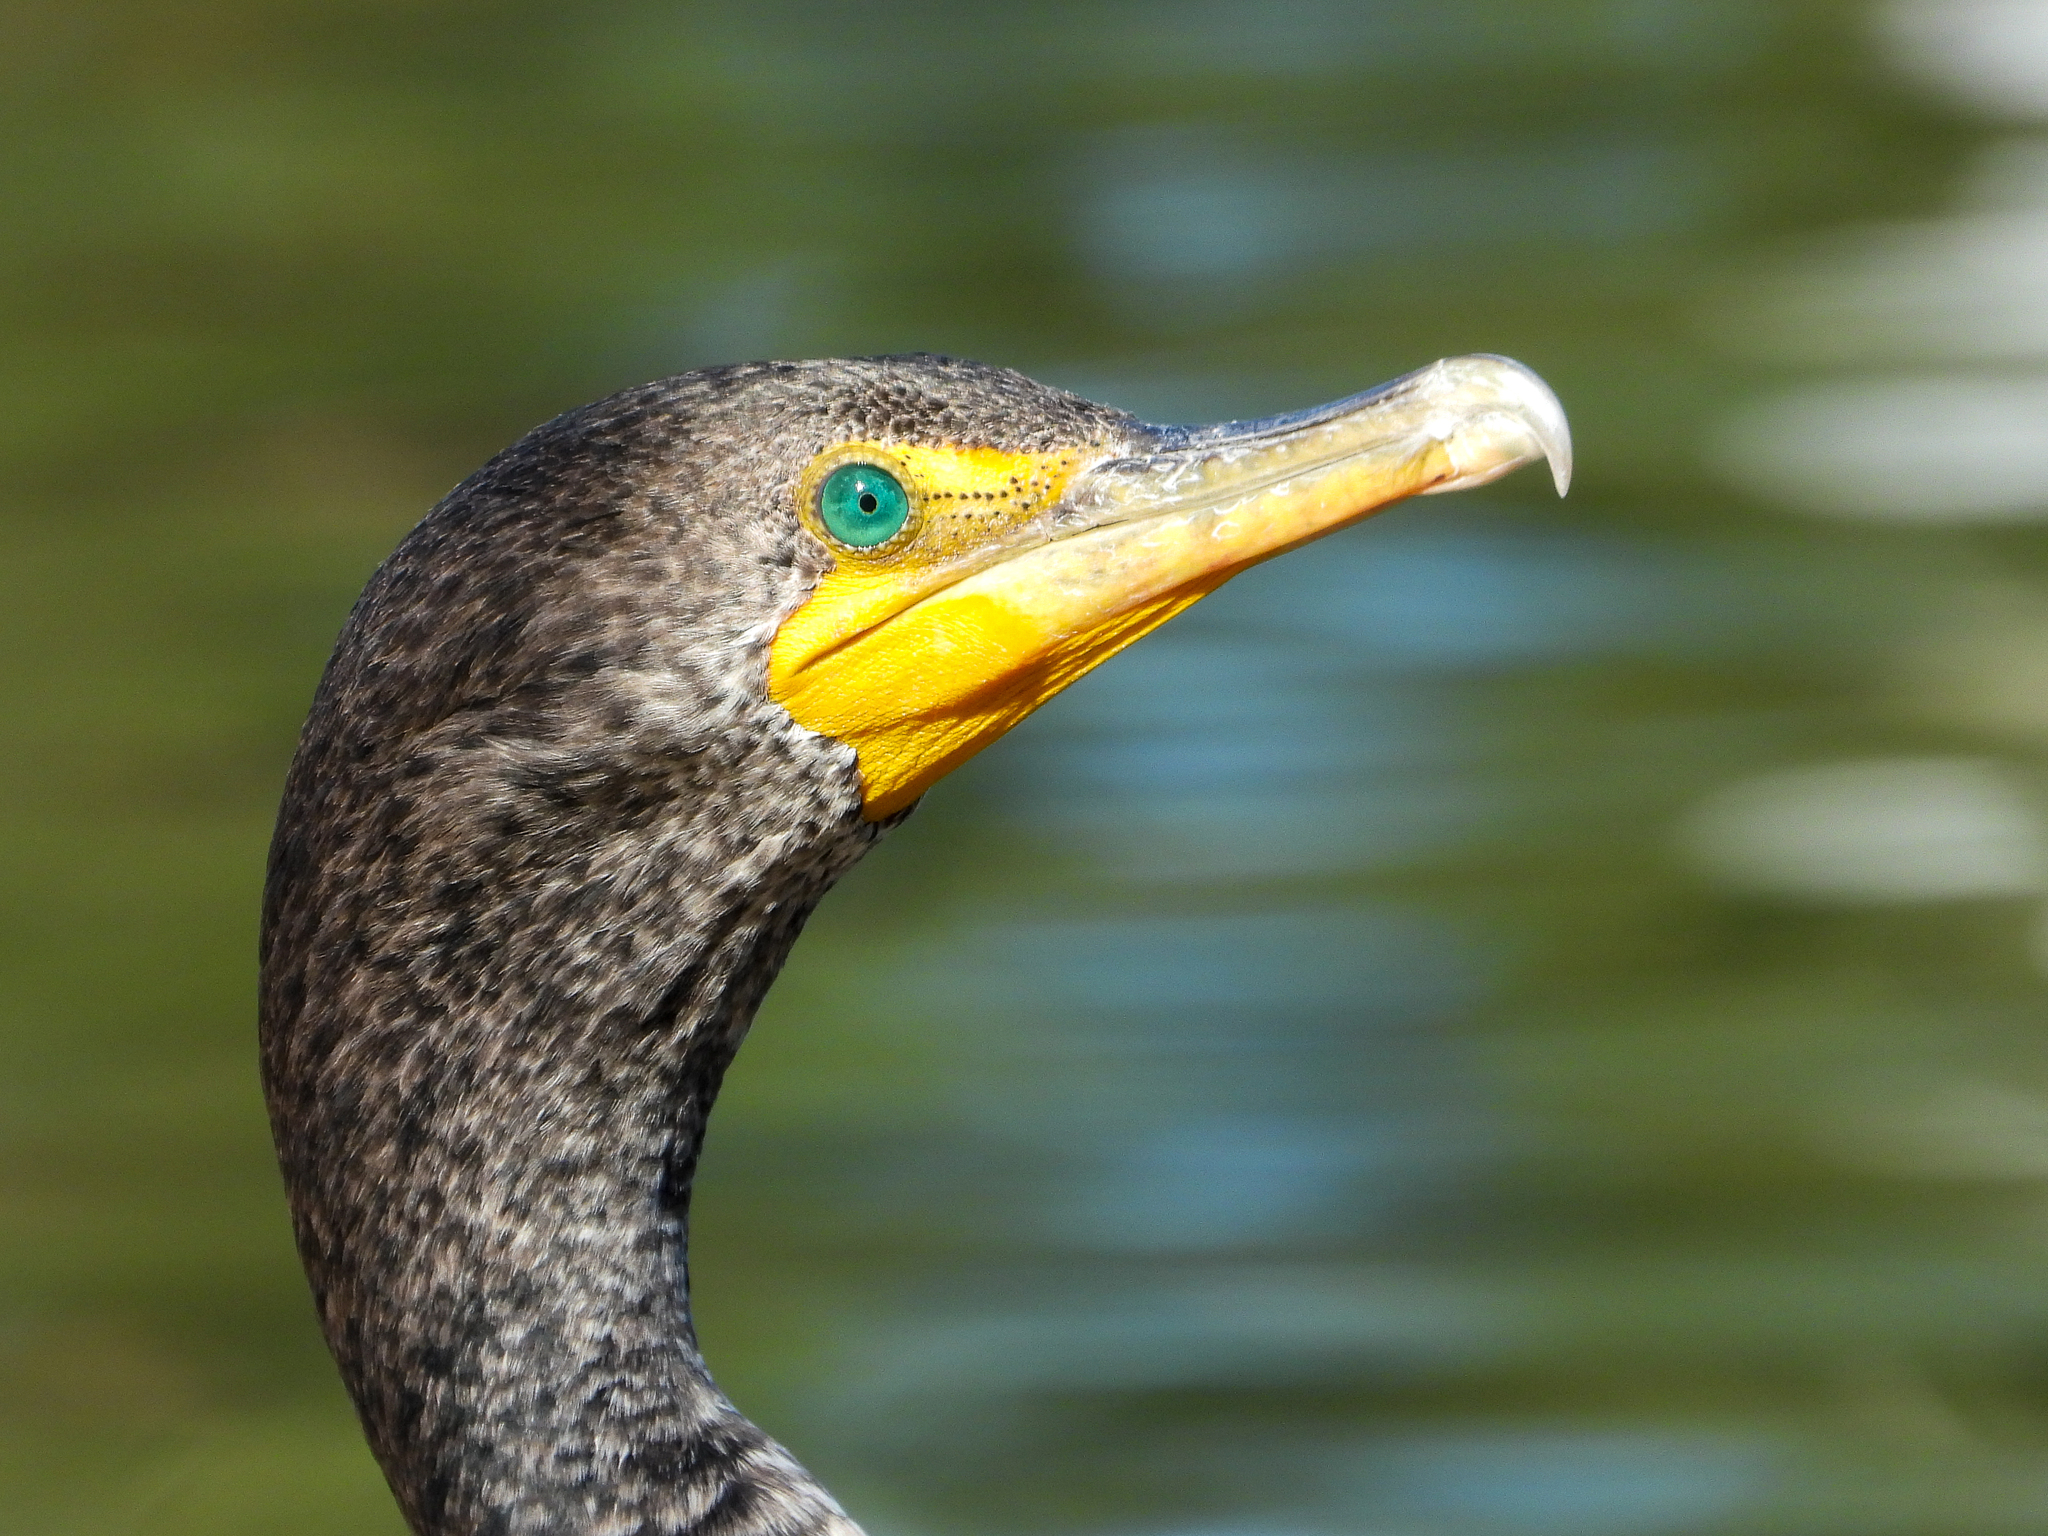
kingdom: Animalia
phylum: Chordata
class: Aves
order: Suliformes
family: Phalacrocoracidae
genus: Phalacrocorax
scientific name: Phalacrocorax auritus
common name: Double-crested cormorant
